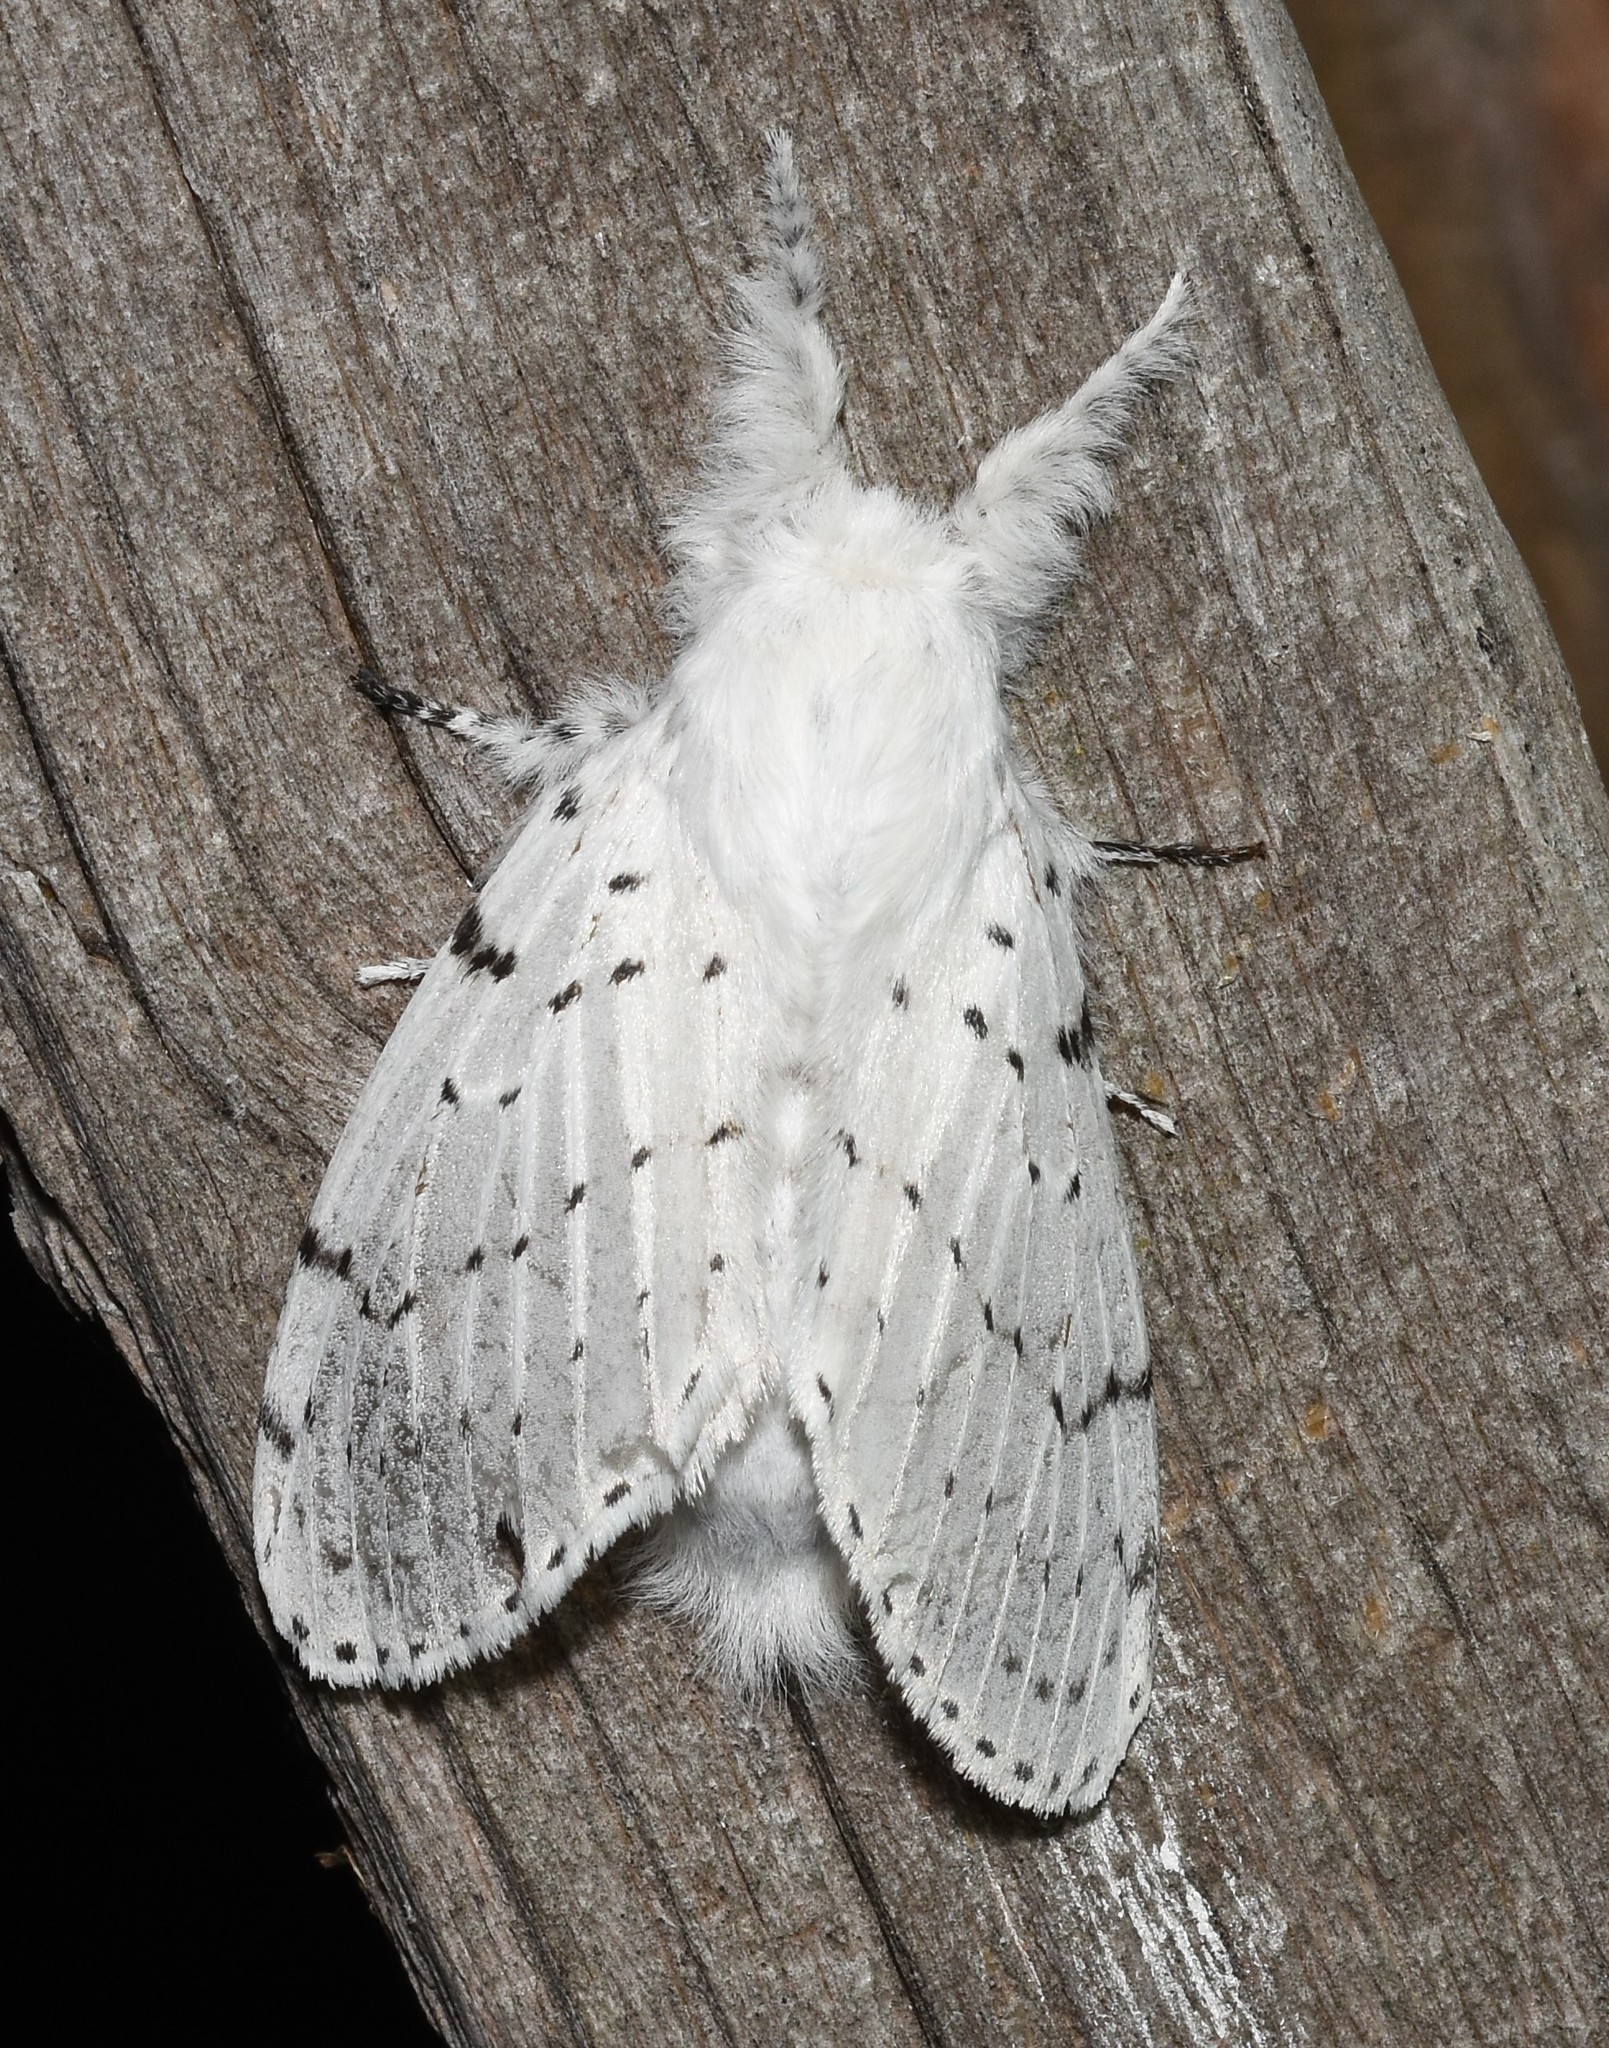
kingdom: Animalia
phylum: Arthropoda
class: Insecta
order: Lepidoptera
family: Lasiocampidae
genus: Artace
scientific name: Artace cribrarius
